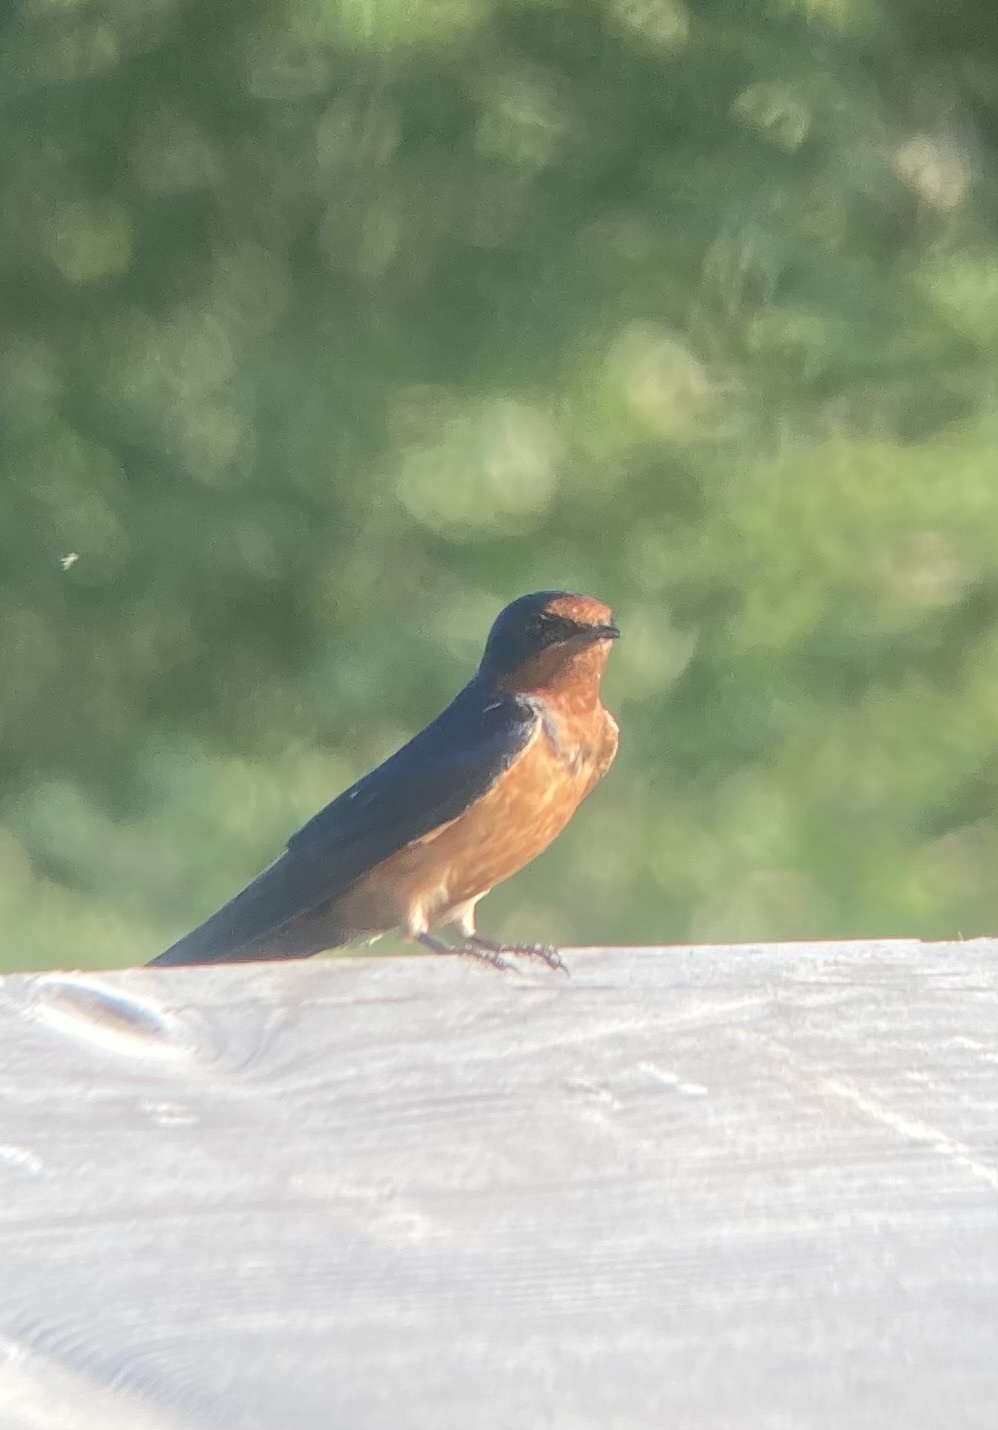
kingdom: Animalia
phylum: Chordata
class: Aves
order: Passeriformes
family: Hirundinidae
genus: Hirundo
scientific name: Hirundo rustica
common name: Barn swallow
